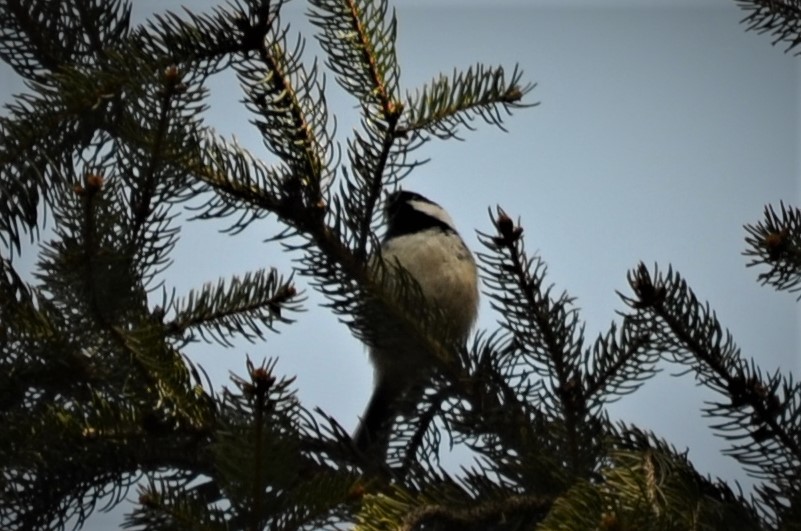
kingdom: Animalia
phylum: Chordata
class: Aves
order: Passeriformes
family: Paridae
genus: Periparus
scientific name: Periparus ater
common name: Coal tit
